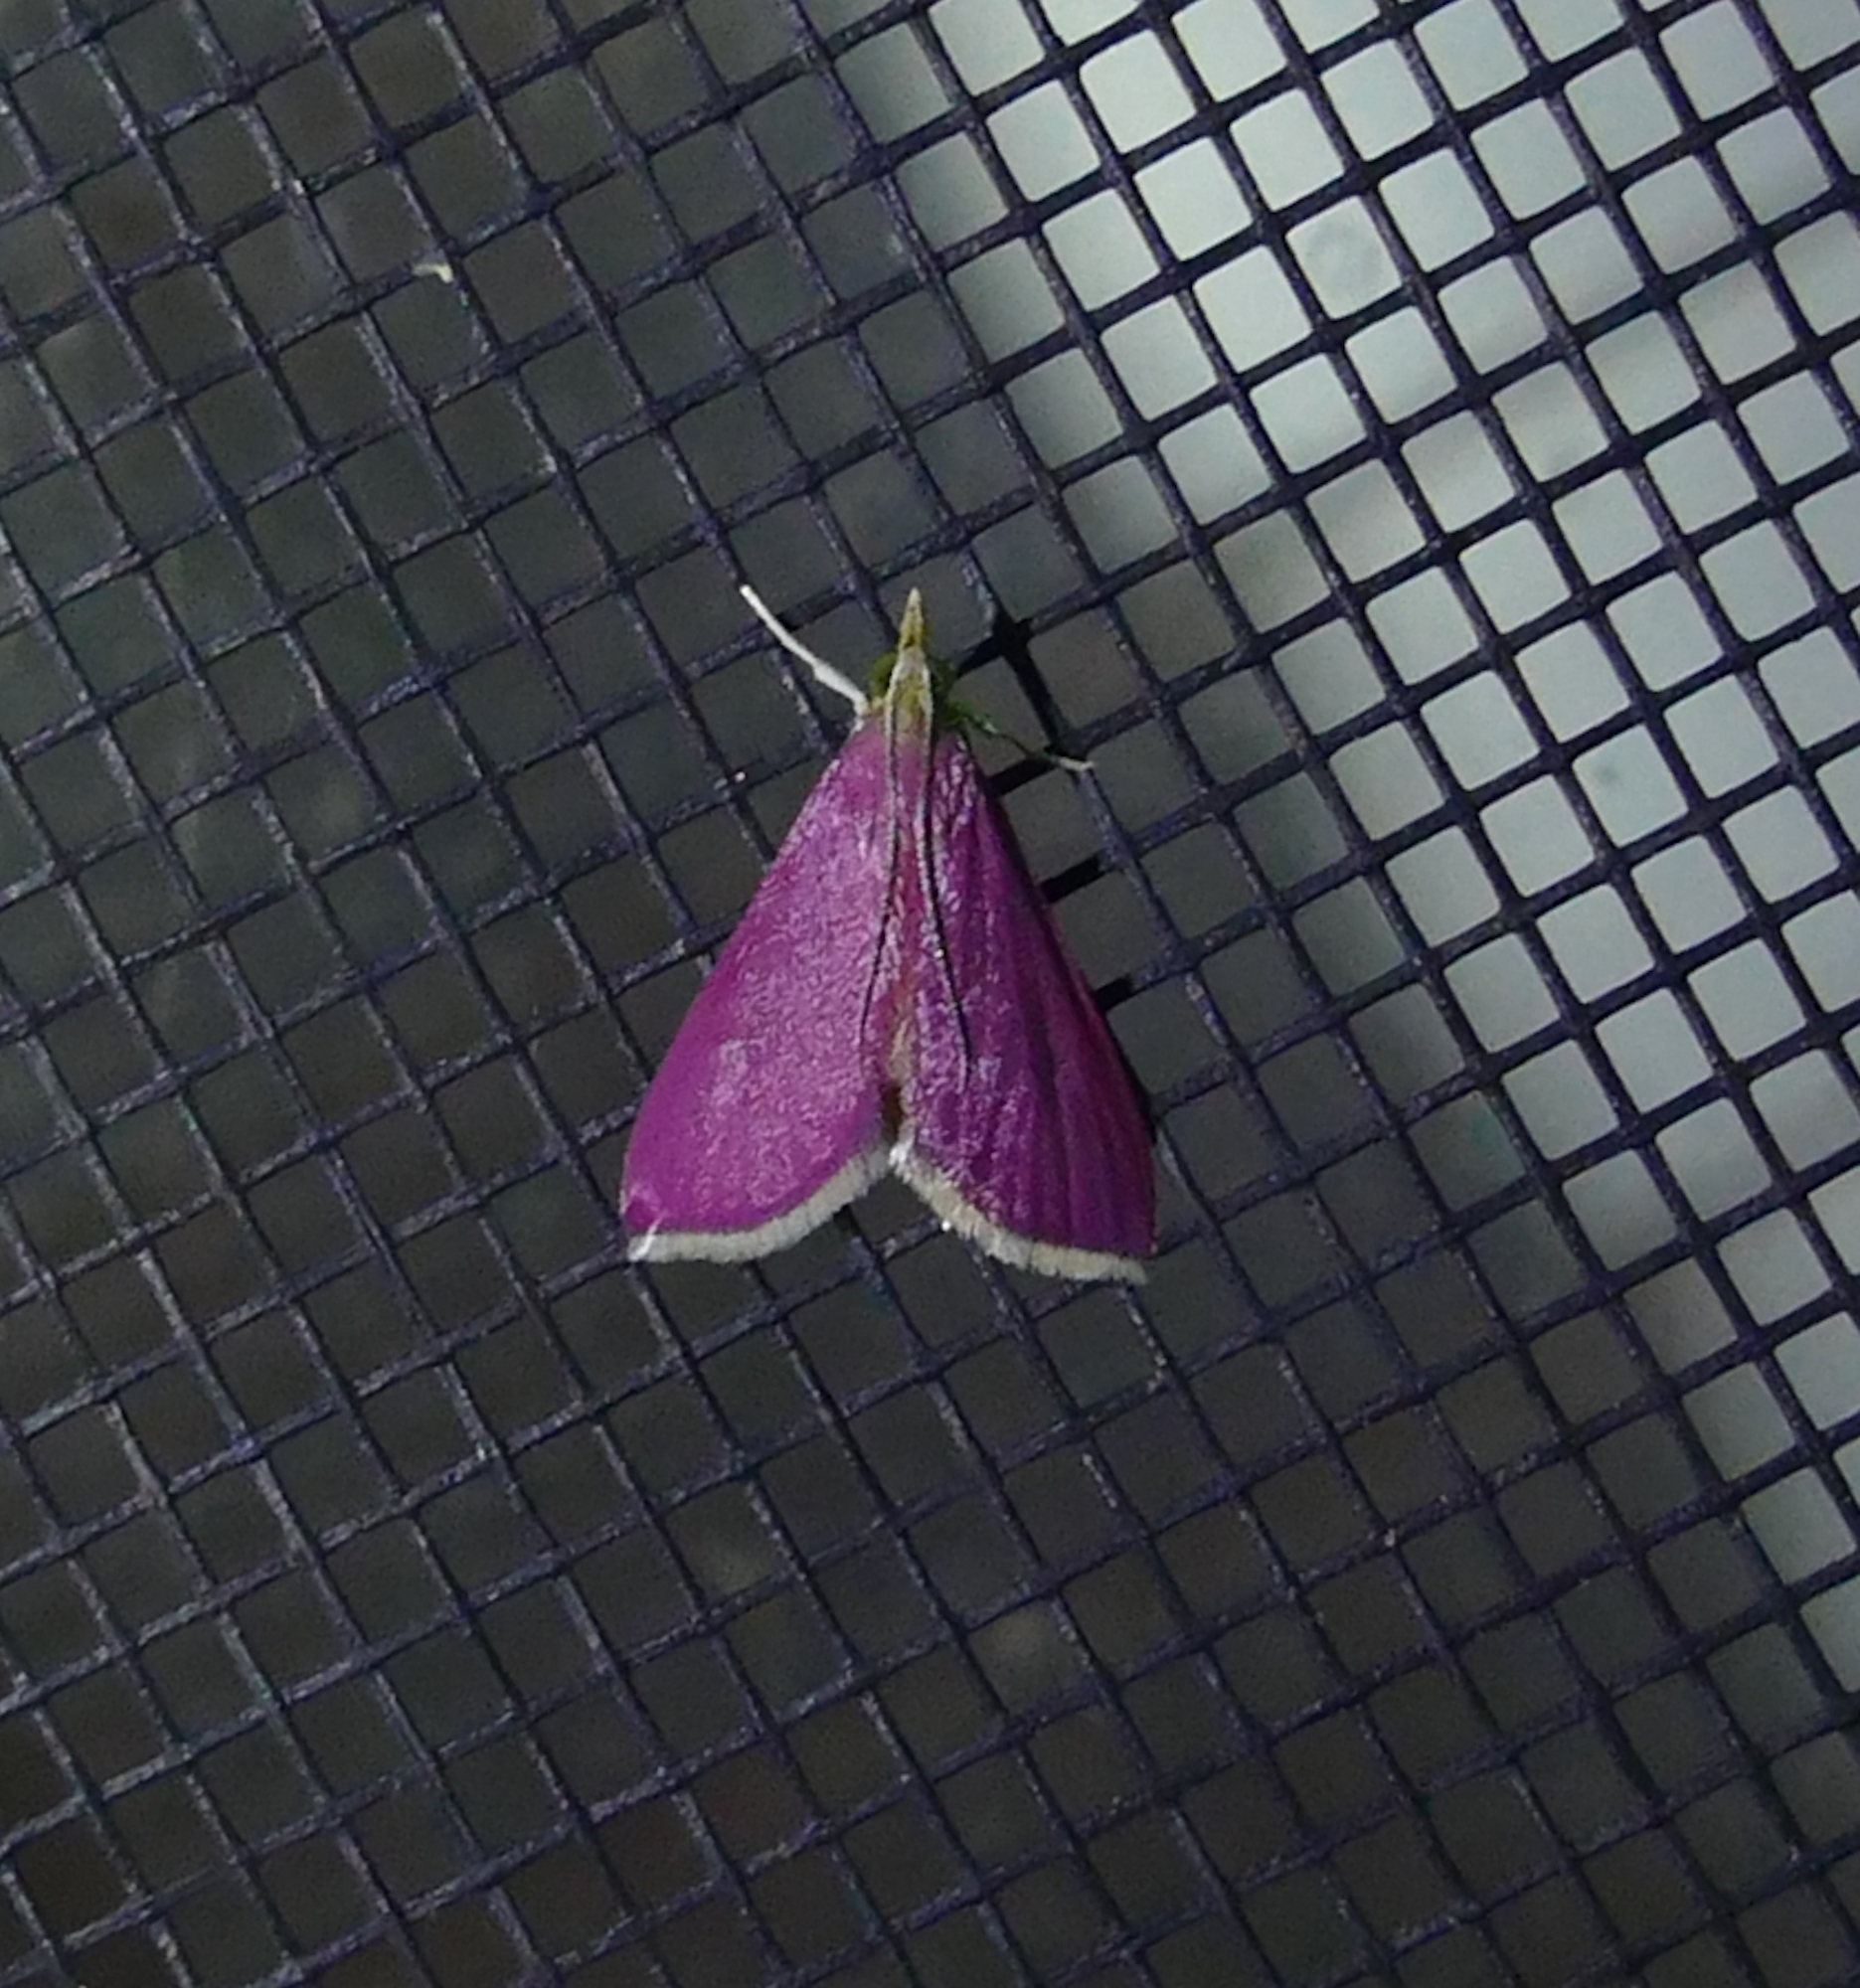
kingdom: Animalia
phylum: Arthropoda
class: Insecta
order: Lepidoptera
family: Crambidae
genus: Pyrausta
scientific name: Pyrausta inornatalis
